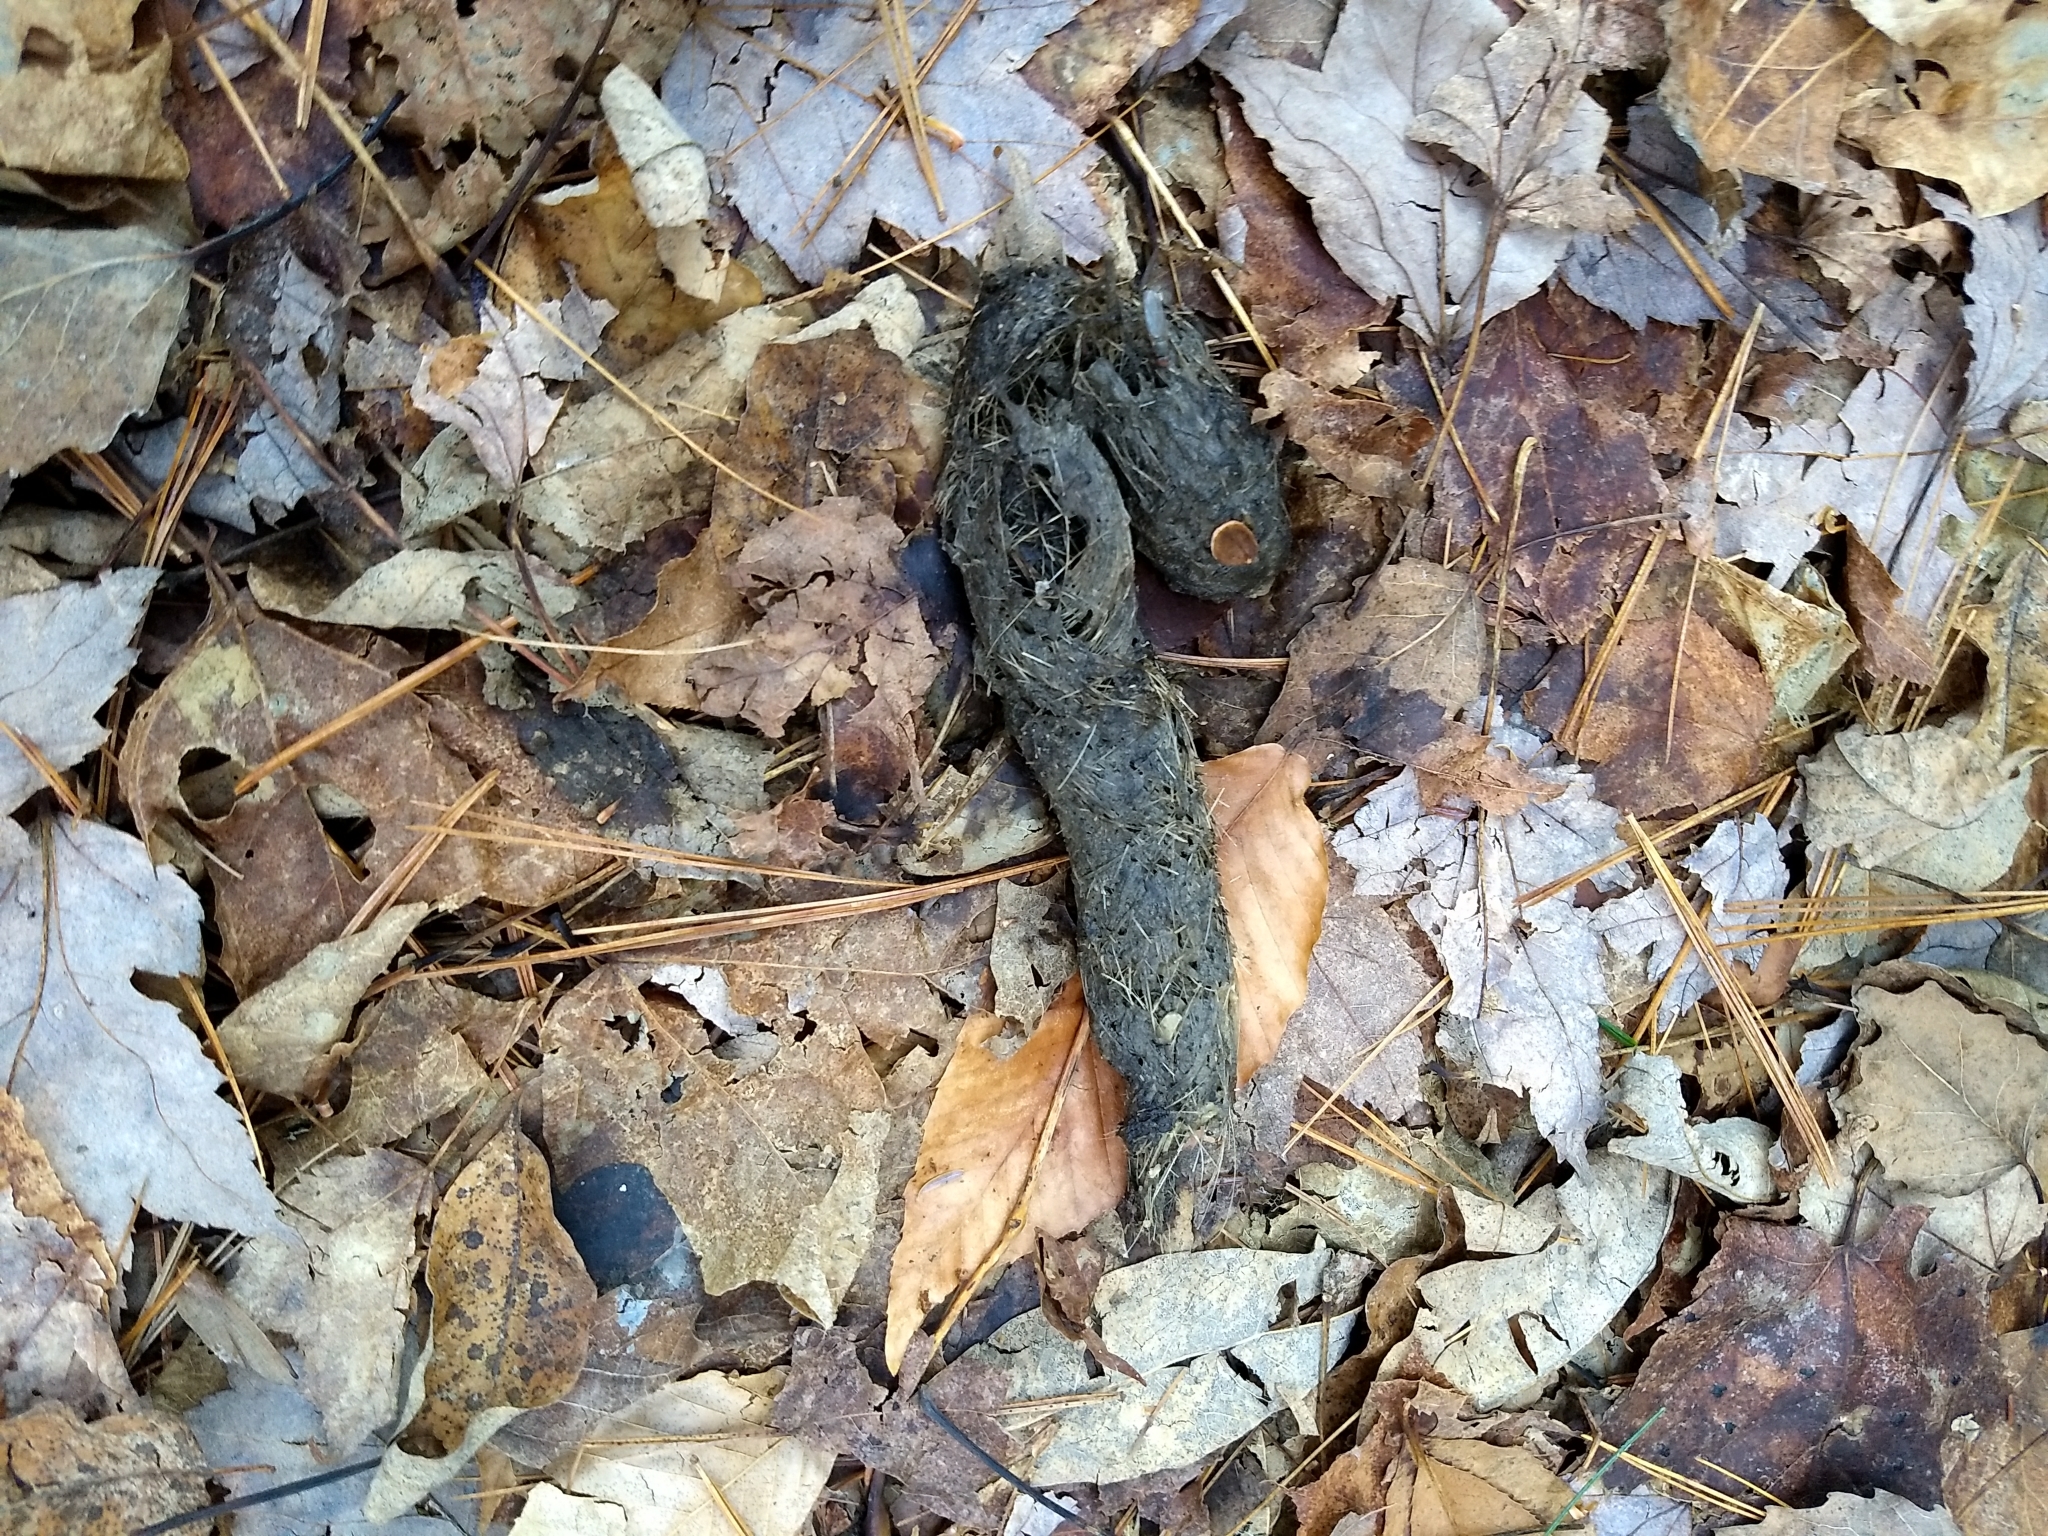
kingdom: Animalia
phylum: Chordata
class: Mammalia
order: Carnivora
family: Canidae
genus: Canis
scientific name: Canis latrans
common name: Coyote
